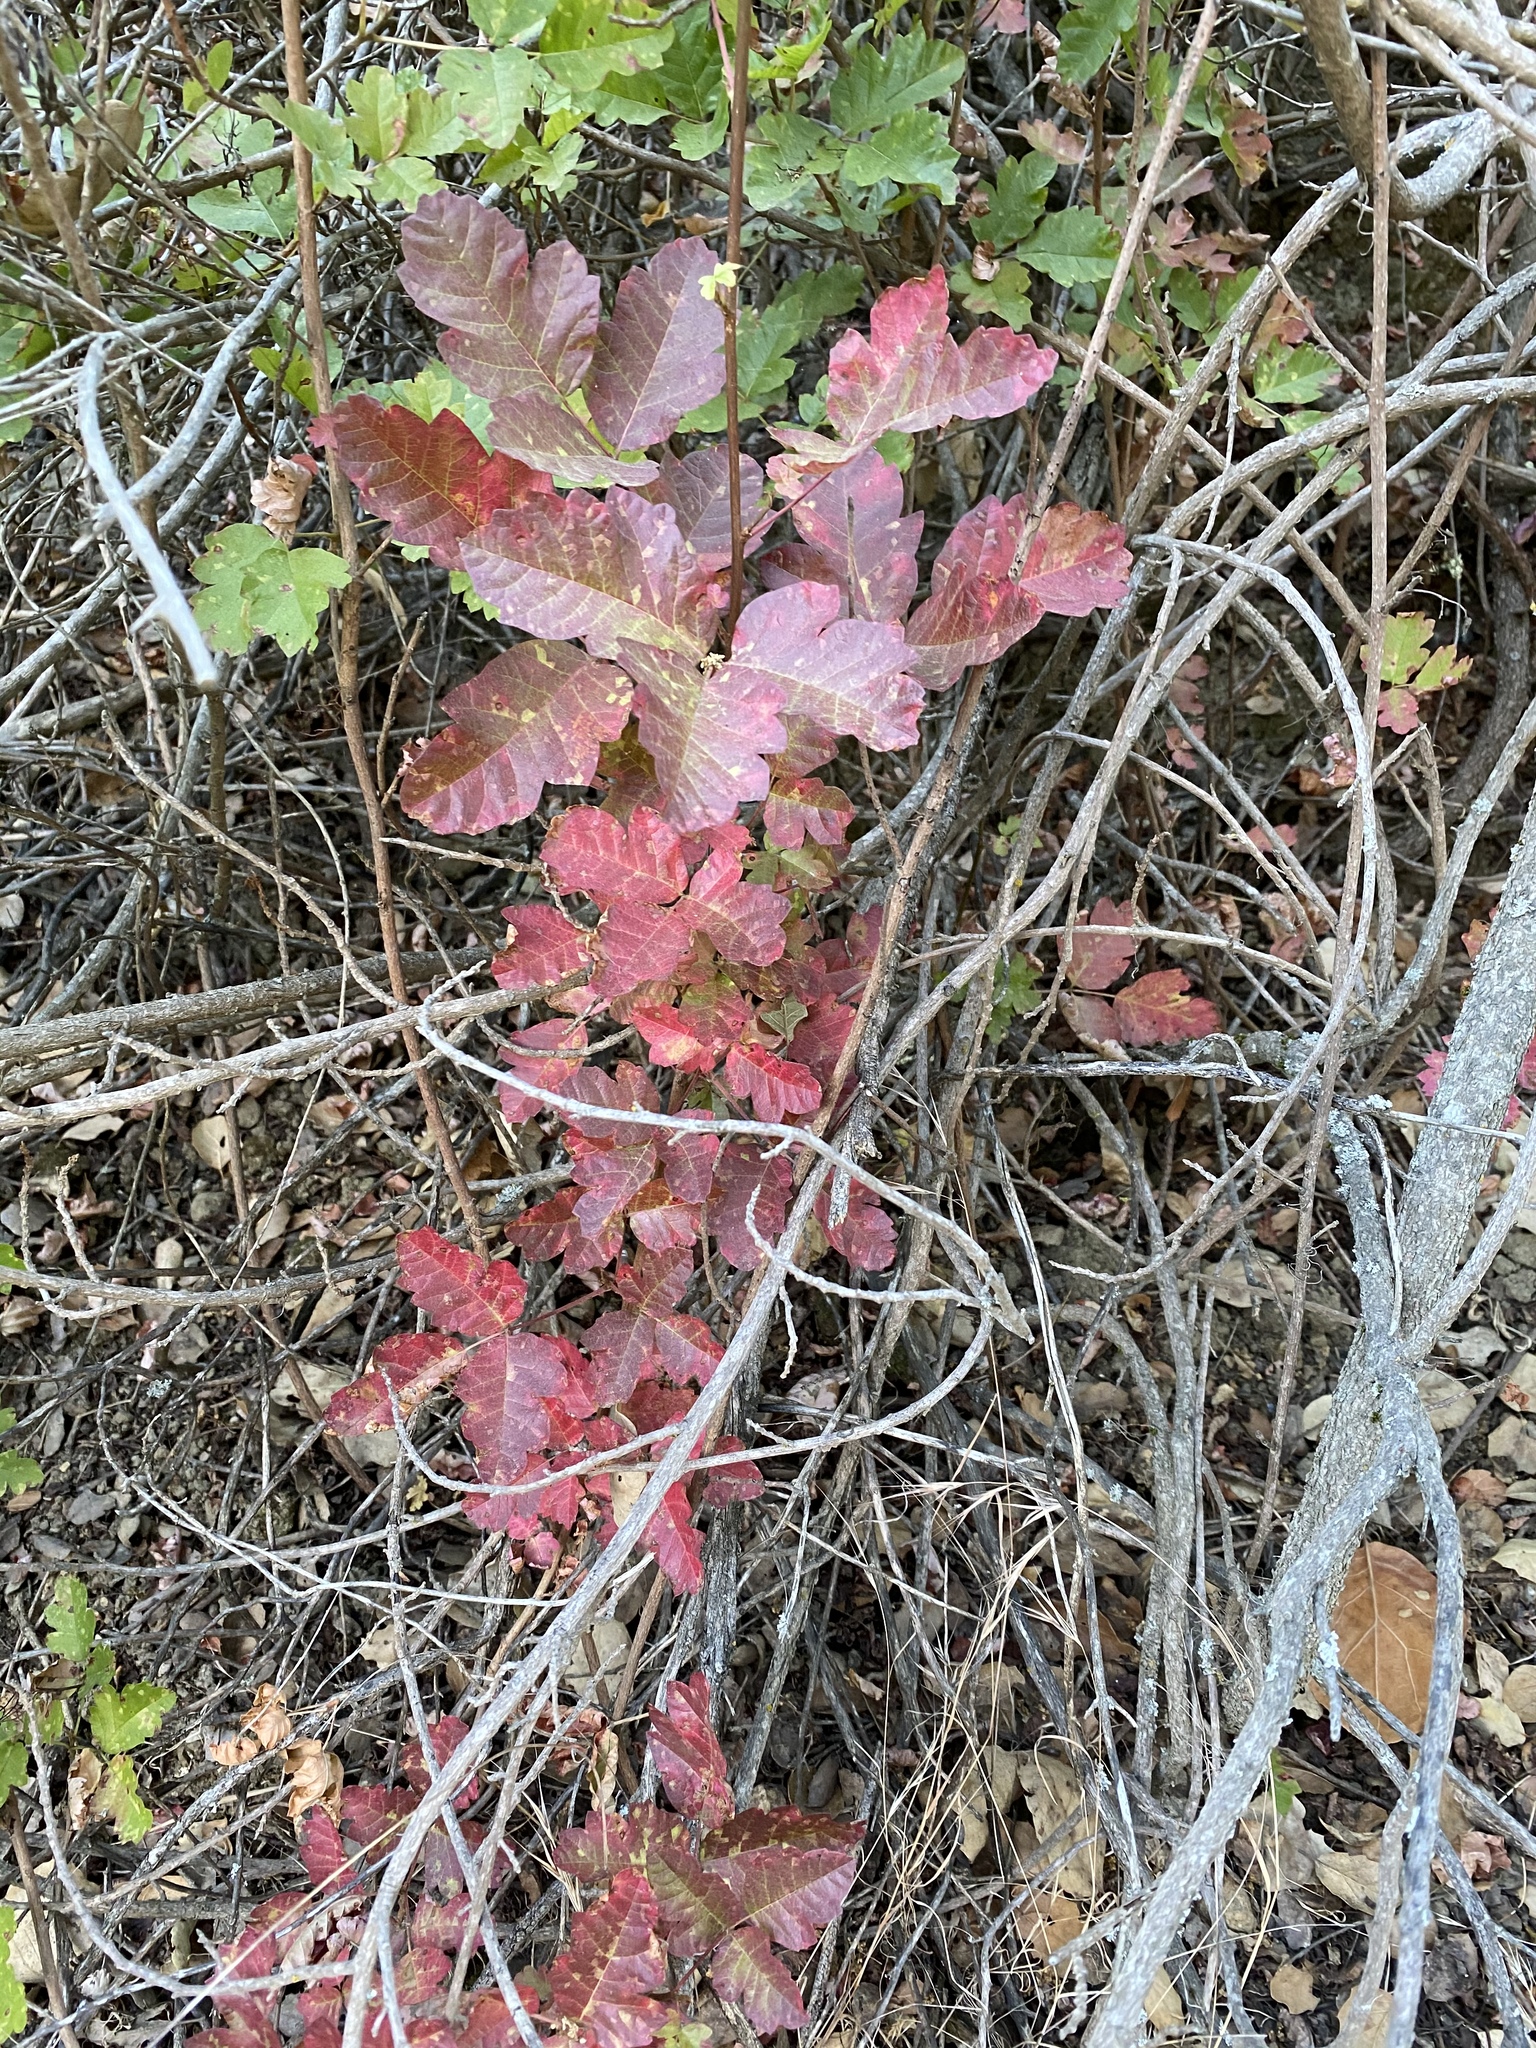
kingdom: Plantae
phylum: Tracheophyta
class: Magnoliopsida
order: Sapindales
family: Anacardiaceae
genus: Toxicodendron
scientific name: Toxicodendron diversilobum
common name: Pacific poison-oak
